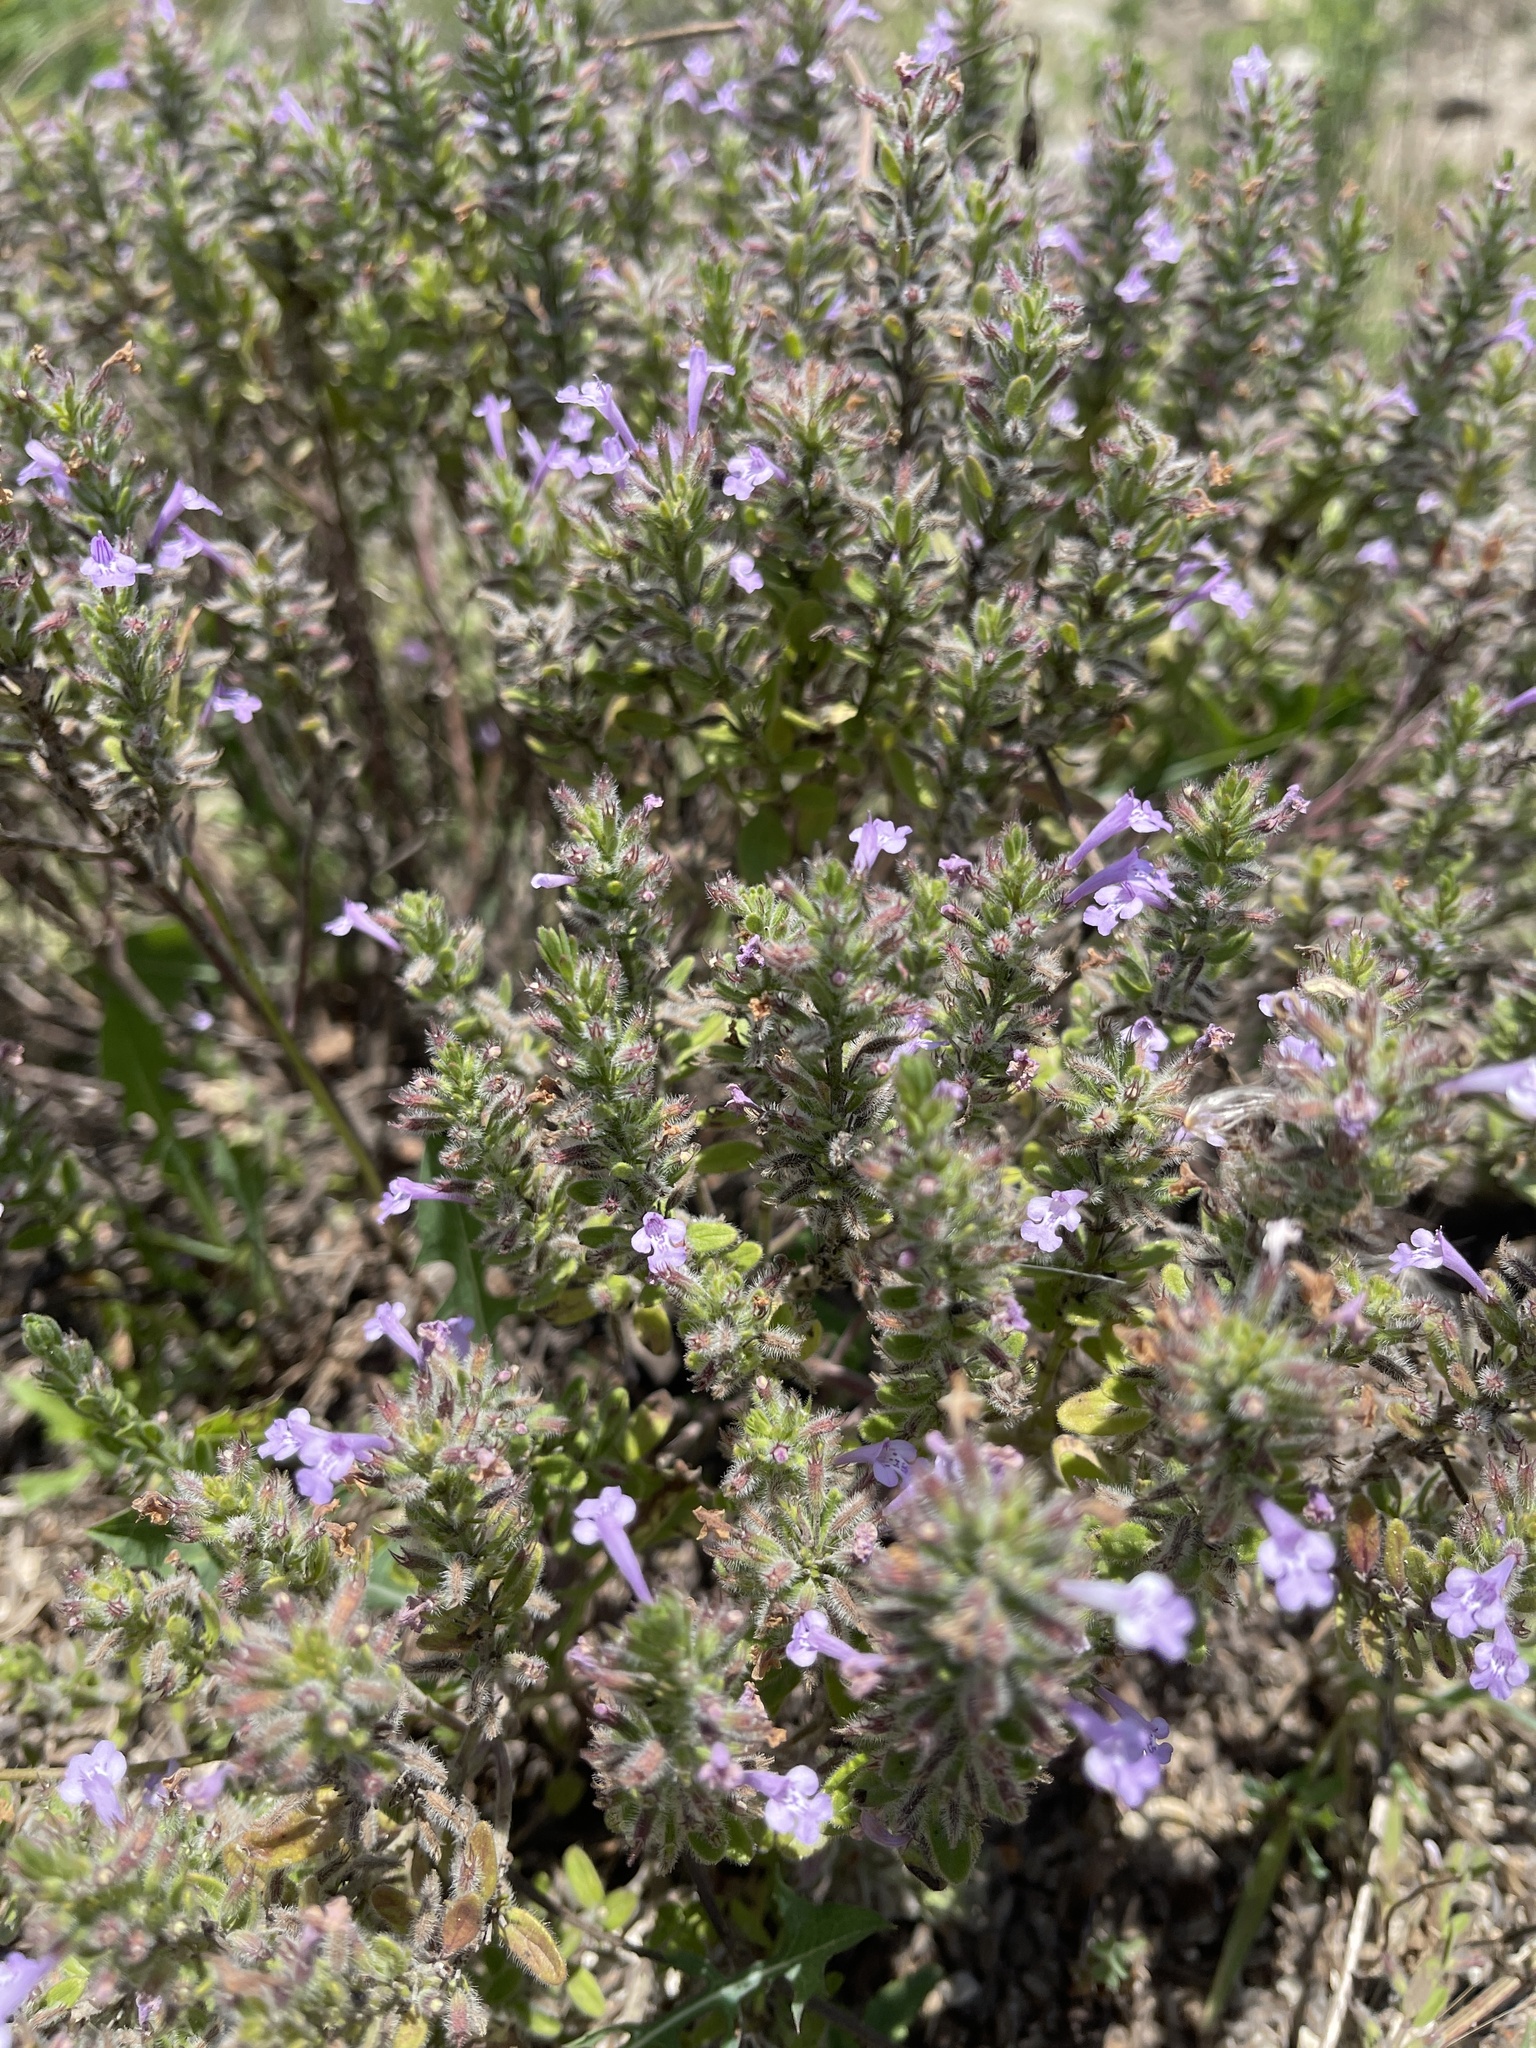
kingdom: Plantae
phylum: Tracheophyta
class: Magnoliopsida
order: Lamiales
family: Lamiaceae
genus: Hedeoma
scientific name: Hedeoma reverchonii
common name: Reverchon's false penny-royal
